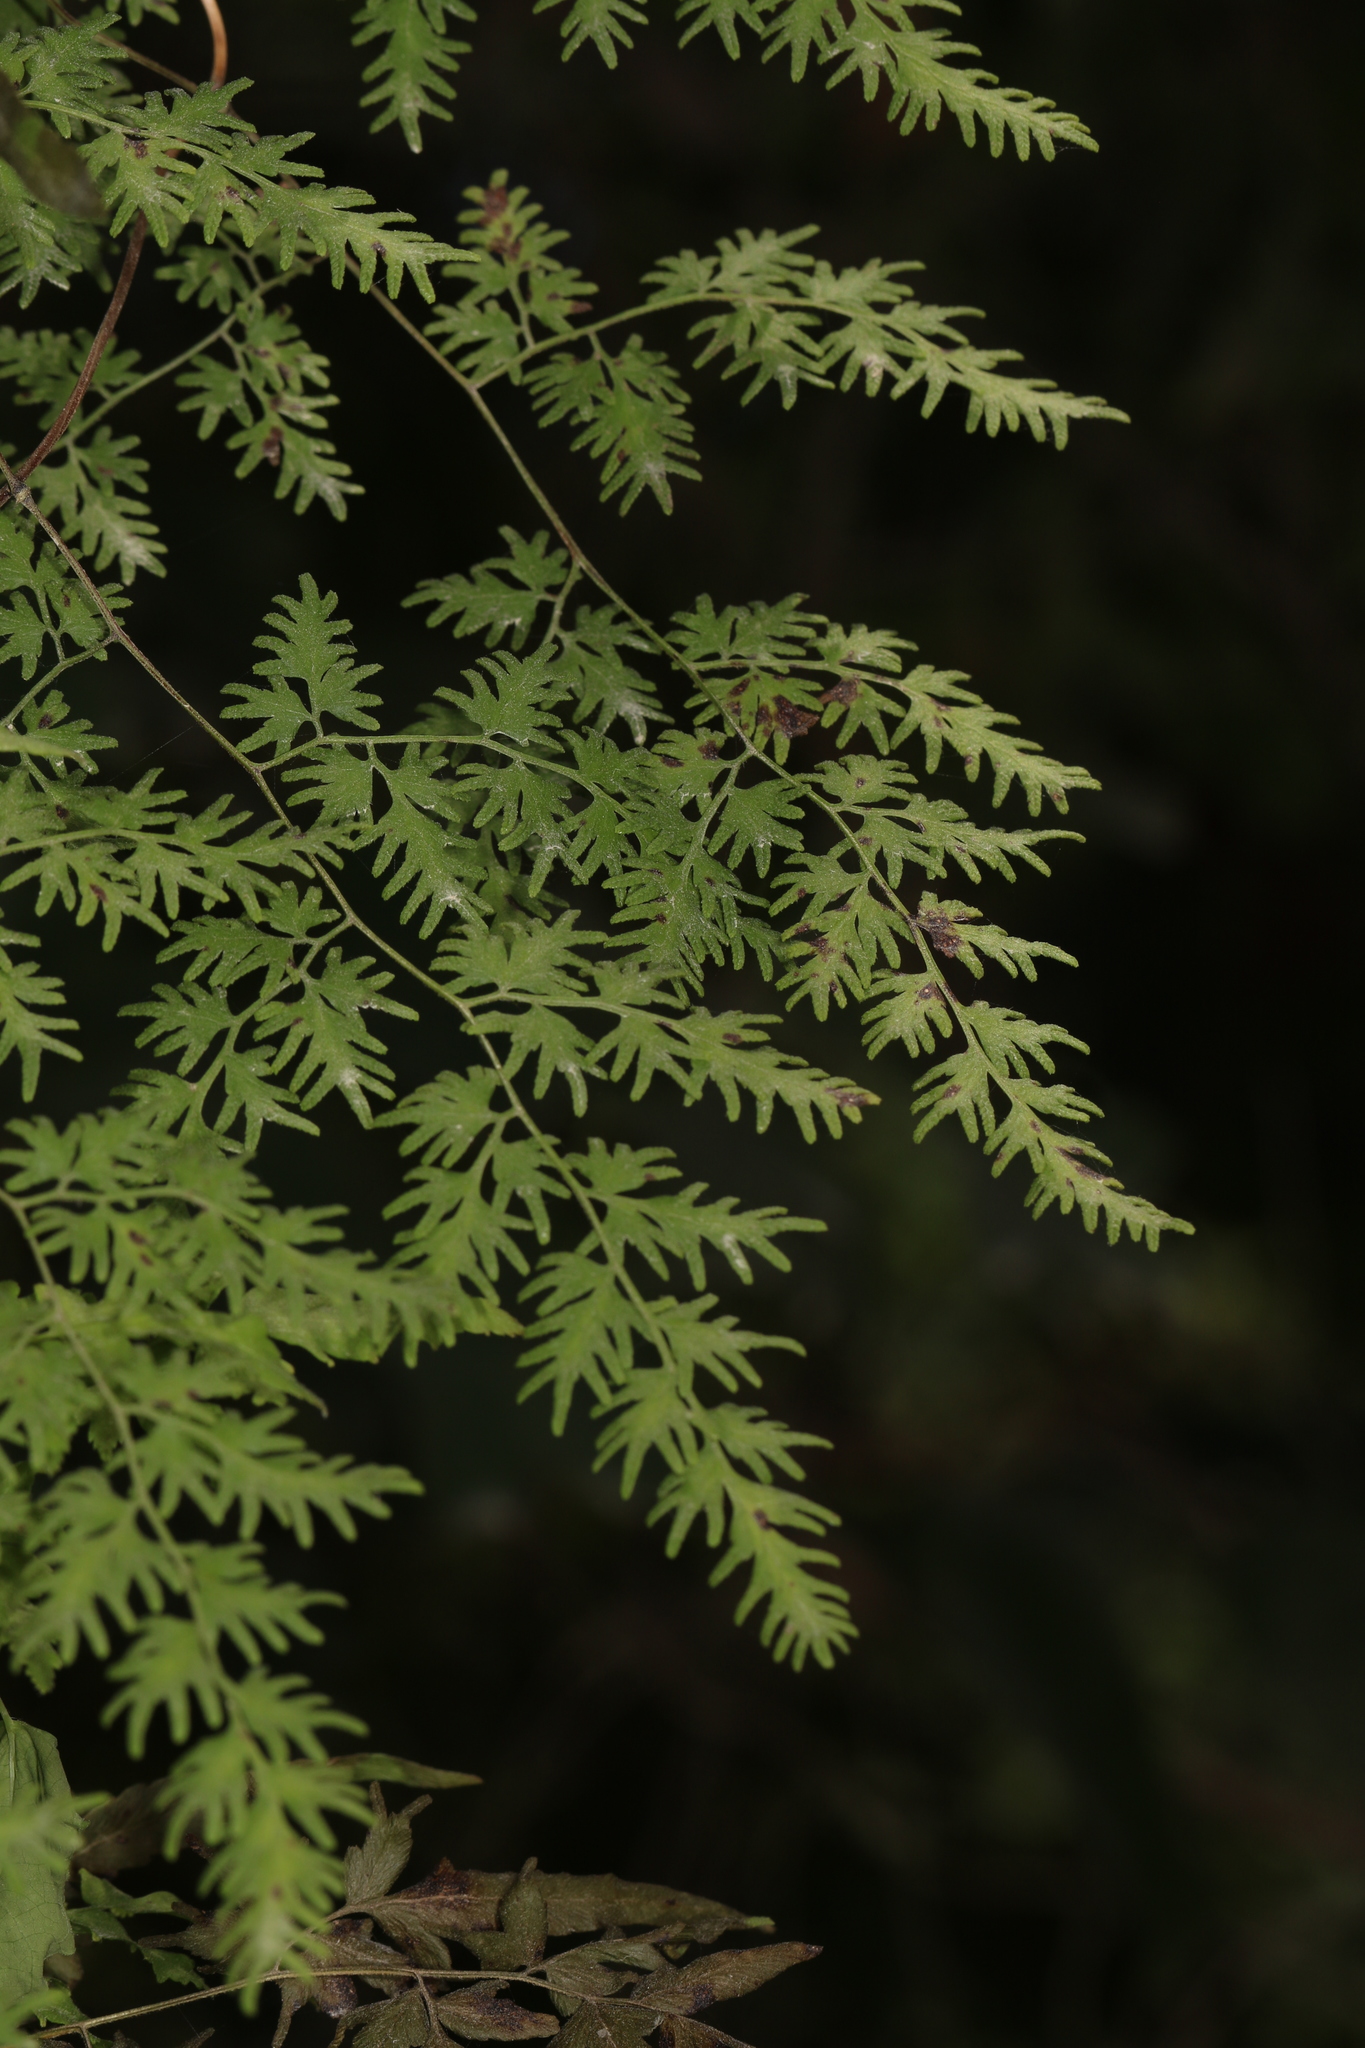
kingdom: Plantae
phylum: Tracheophyta
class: Polypodiopsida
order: Schizaeales
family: Lygodiaceae
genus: Lygodium
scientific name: Lygodium japonicum
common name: Japanese climbing fern
